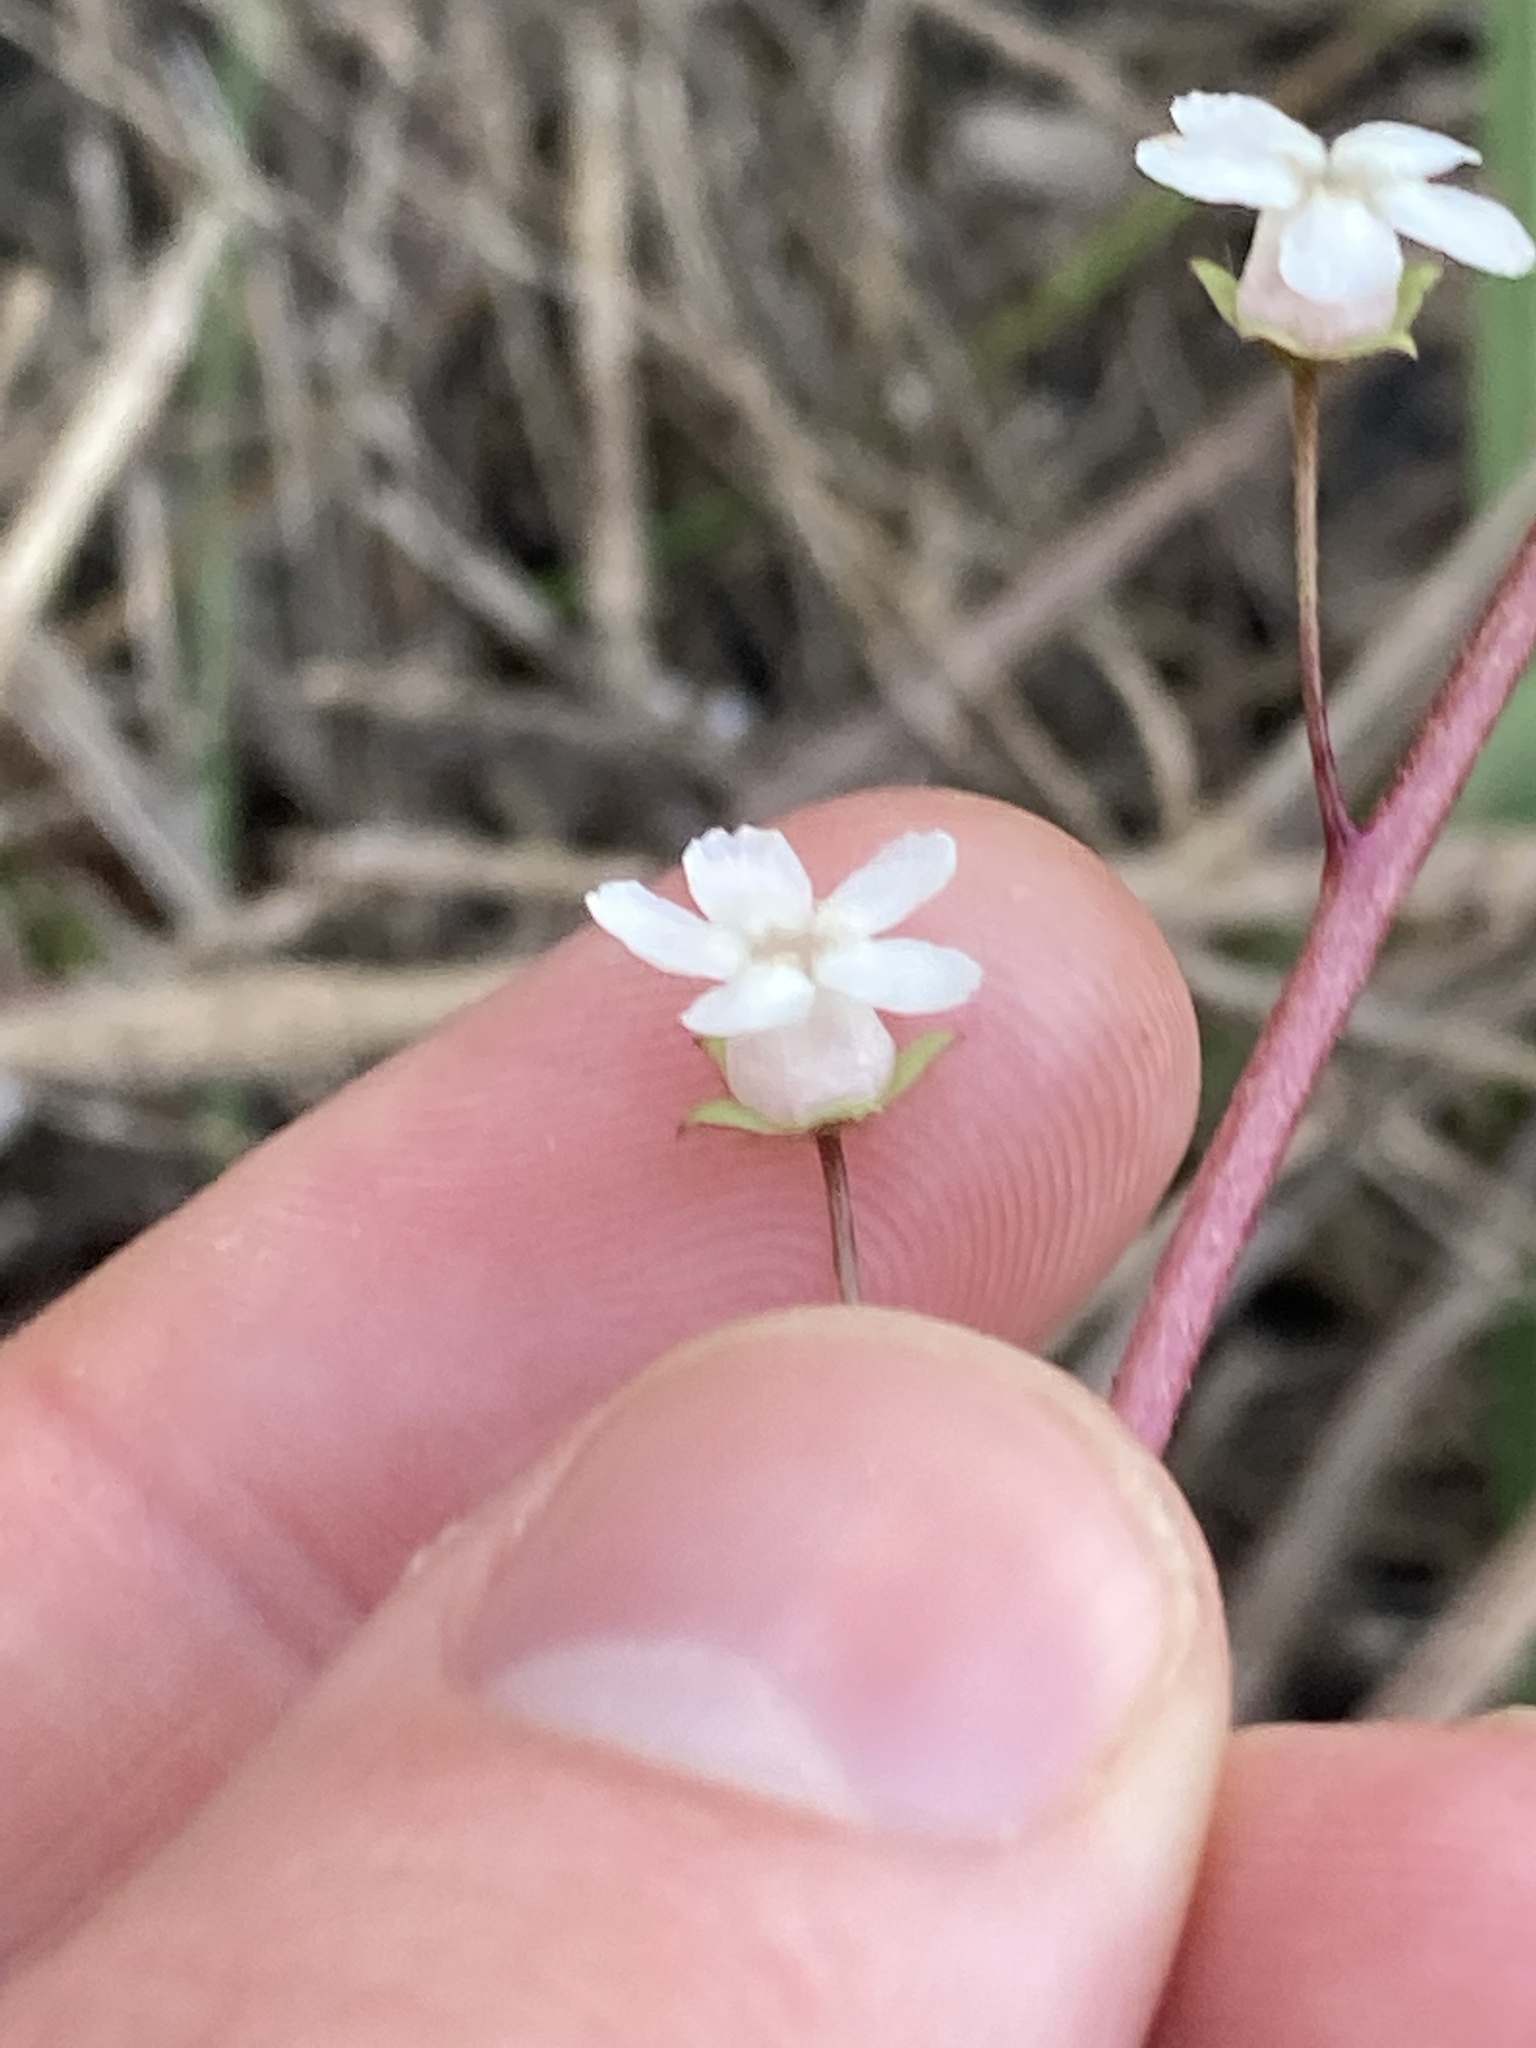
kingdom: Plantae
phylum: Tracheophyta
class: Magnoliopsida
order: Ericales
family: Primulaceae
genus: Samolus
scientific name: Samolus ebracteatus
